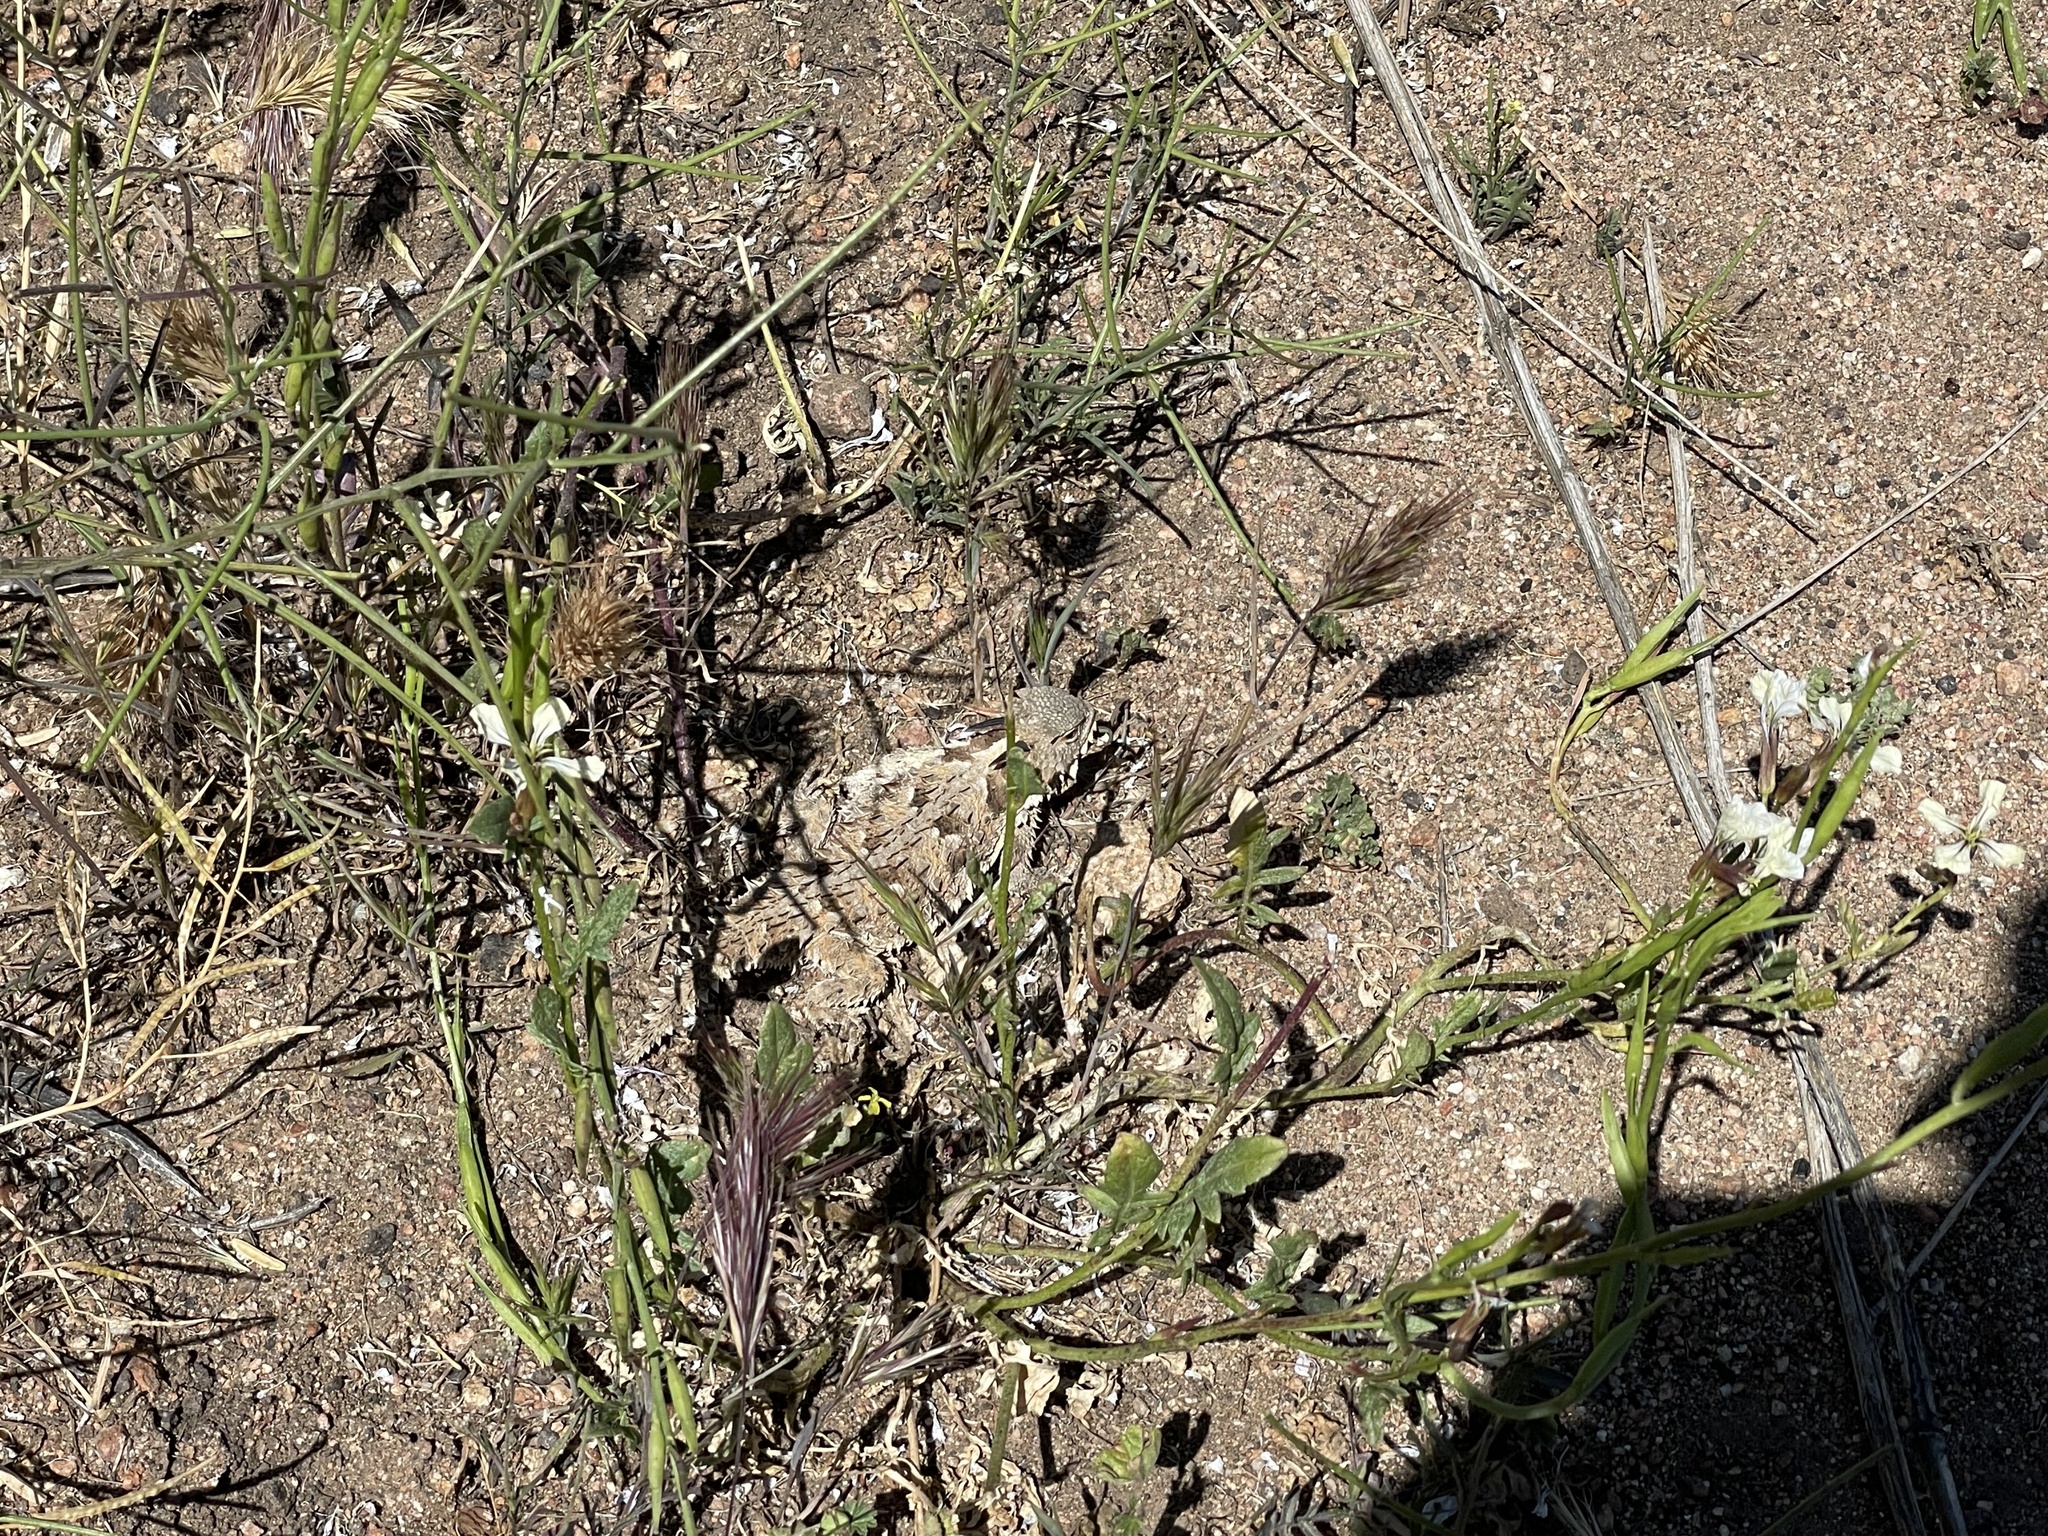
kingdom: Animalia
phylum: Chordata
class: Squamata
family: Phrynosomatidae
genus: Phrynosoma
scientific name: Phrynosoma blainvillii
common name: San diego horned lizard
